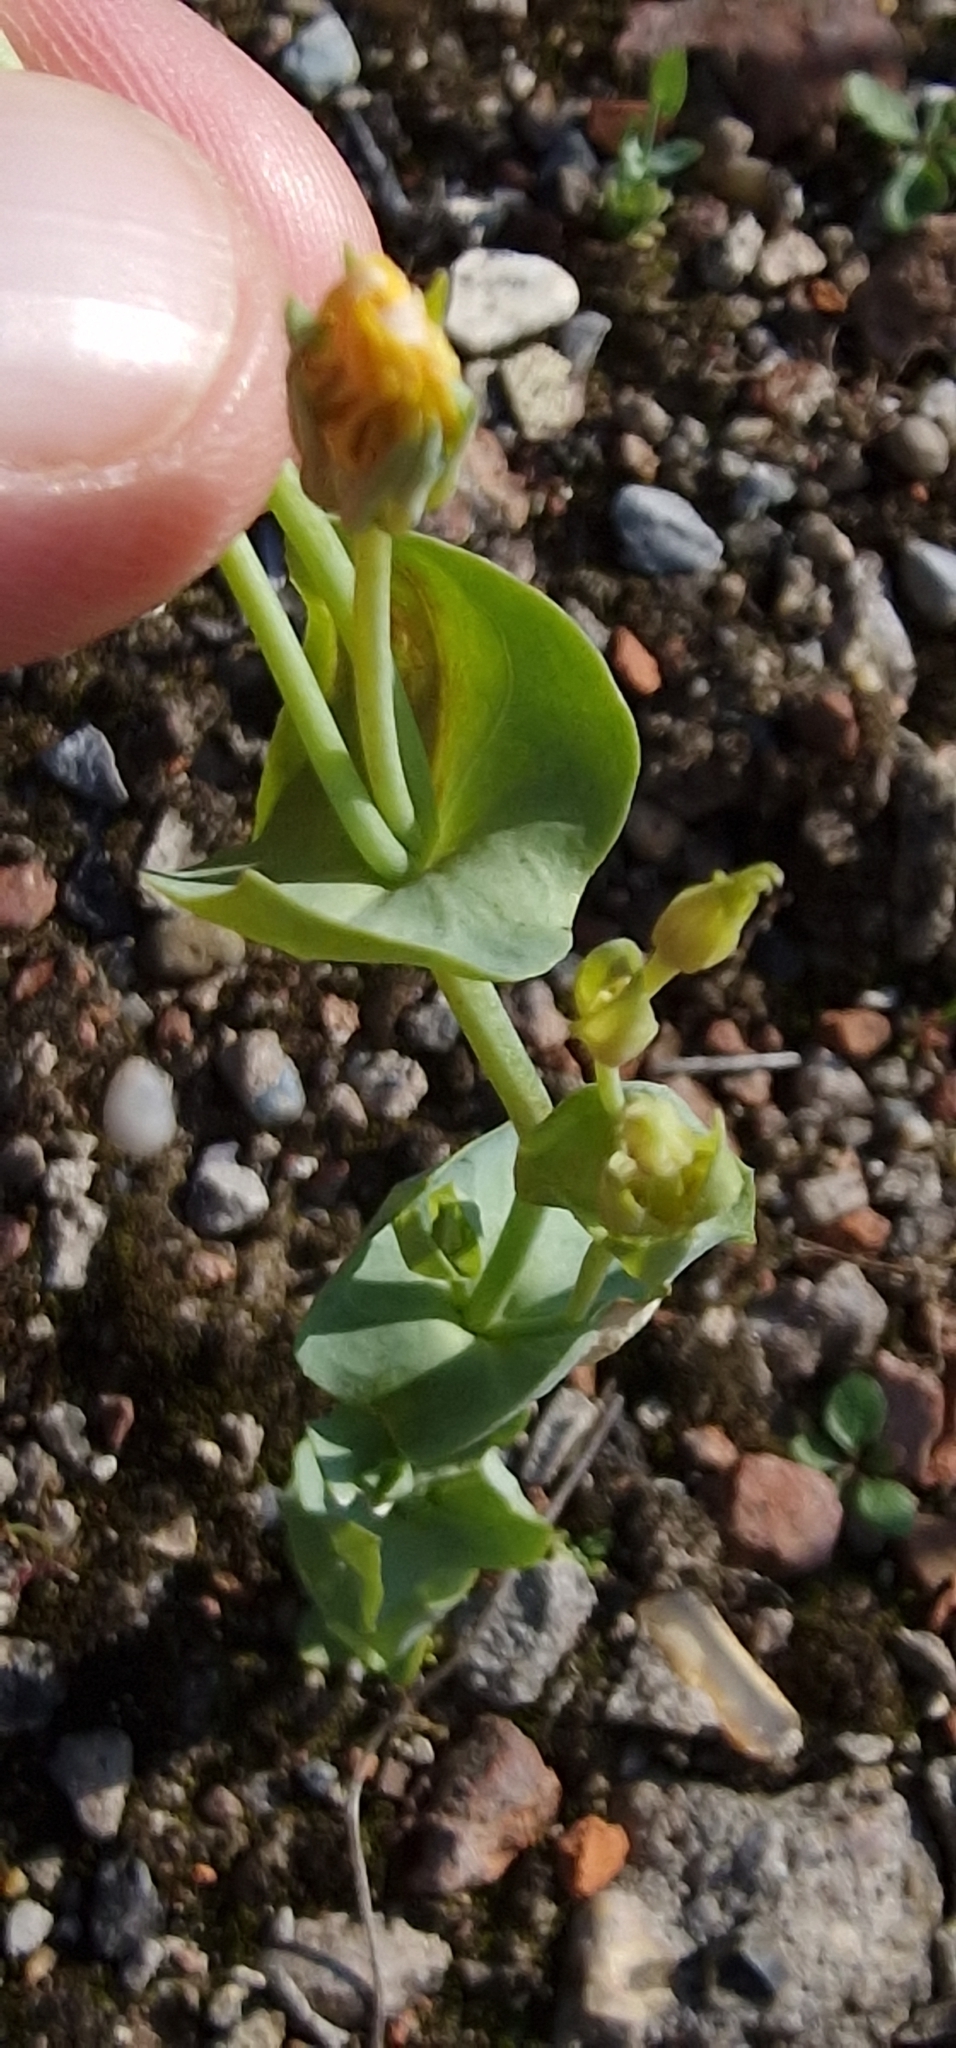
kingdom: Plantae
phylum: Tracheophyta
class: Magnoliopsida
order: Gentianales
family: Gentianaceae
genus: Blackstonia
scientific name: Blackstonia perfoliata
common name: Yellow-wort
